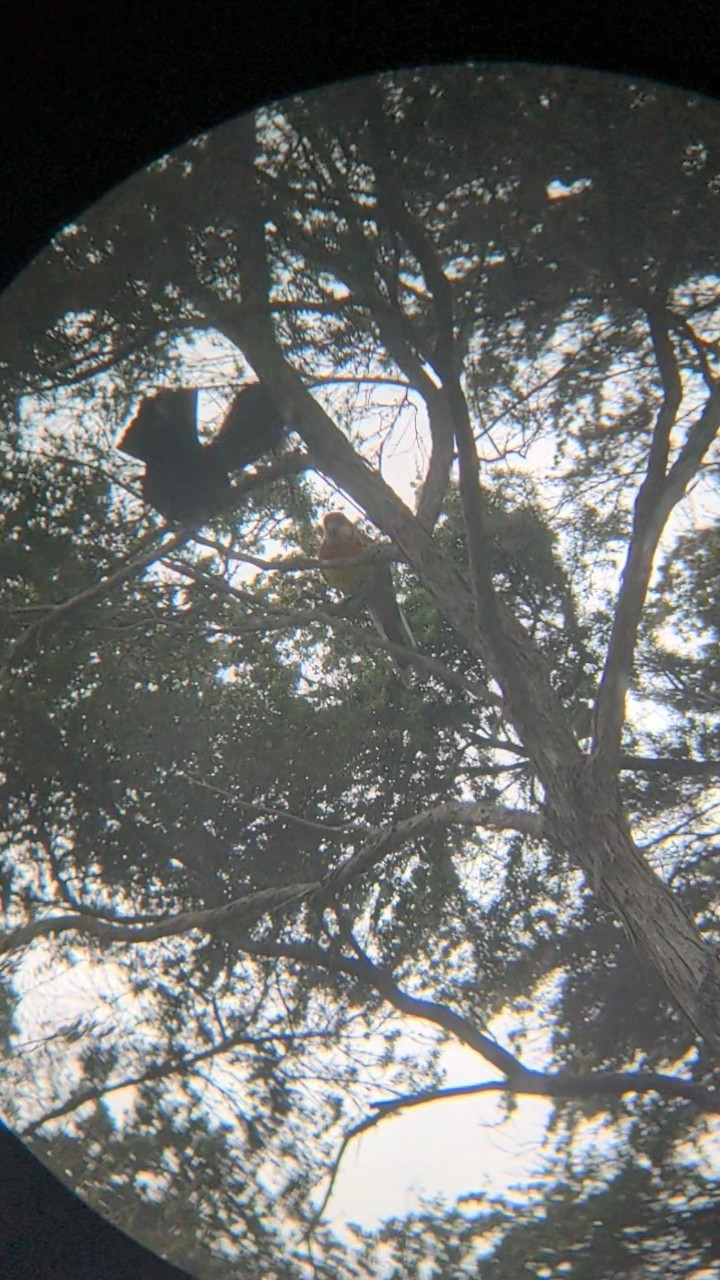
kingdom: Animalia
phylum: Chordata
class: Aves
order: Psittaciformes
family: Psittacidae
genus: Platycercus
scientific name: Platycercus eximius
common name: Eastern rosella
